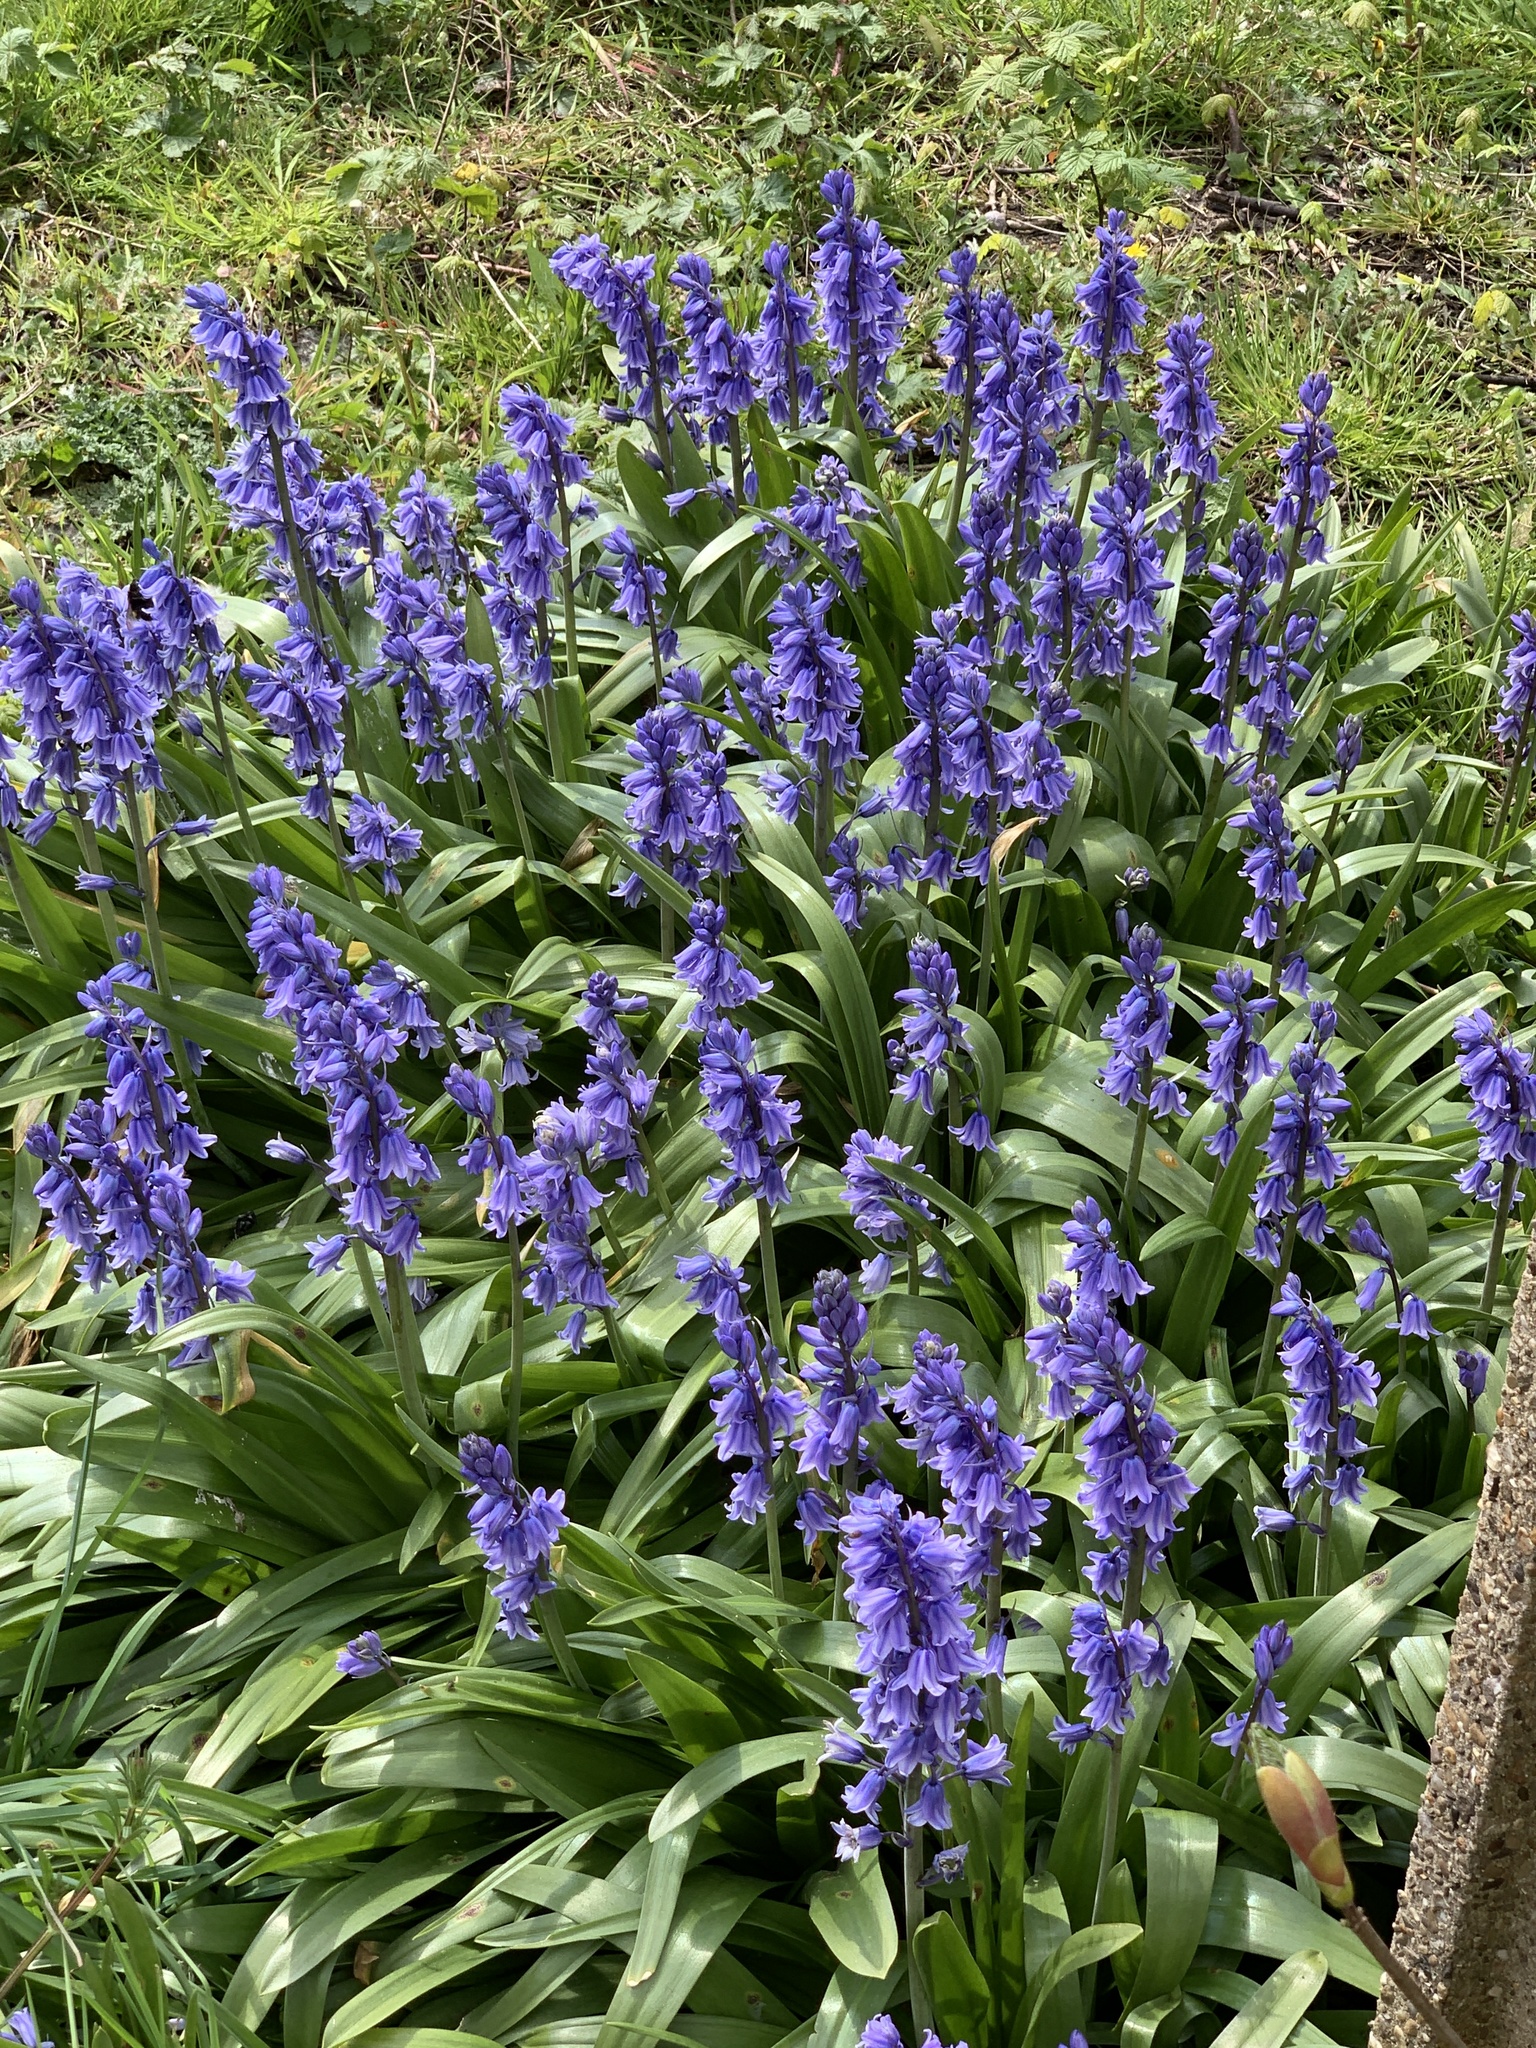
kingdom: Plantae
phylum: Tracheophyta
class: Liliopsida
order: Asparagales
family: Asparagaceae
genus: Hyacinthoides
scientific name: Hyacinthoides massartiana
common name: Hyacinthoides
